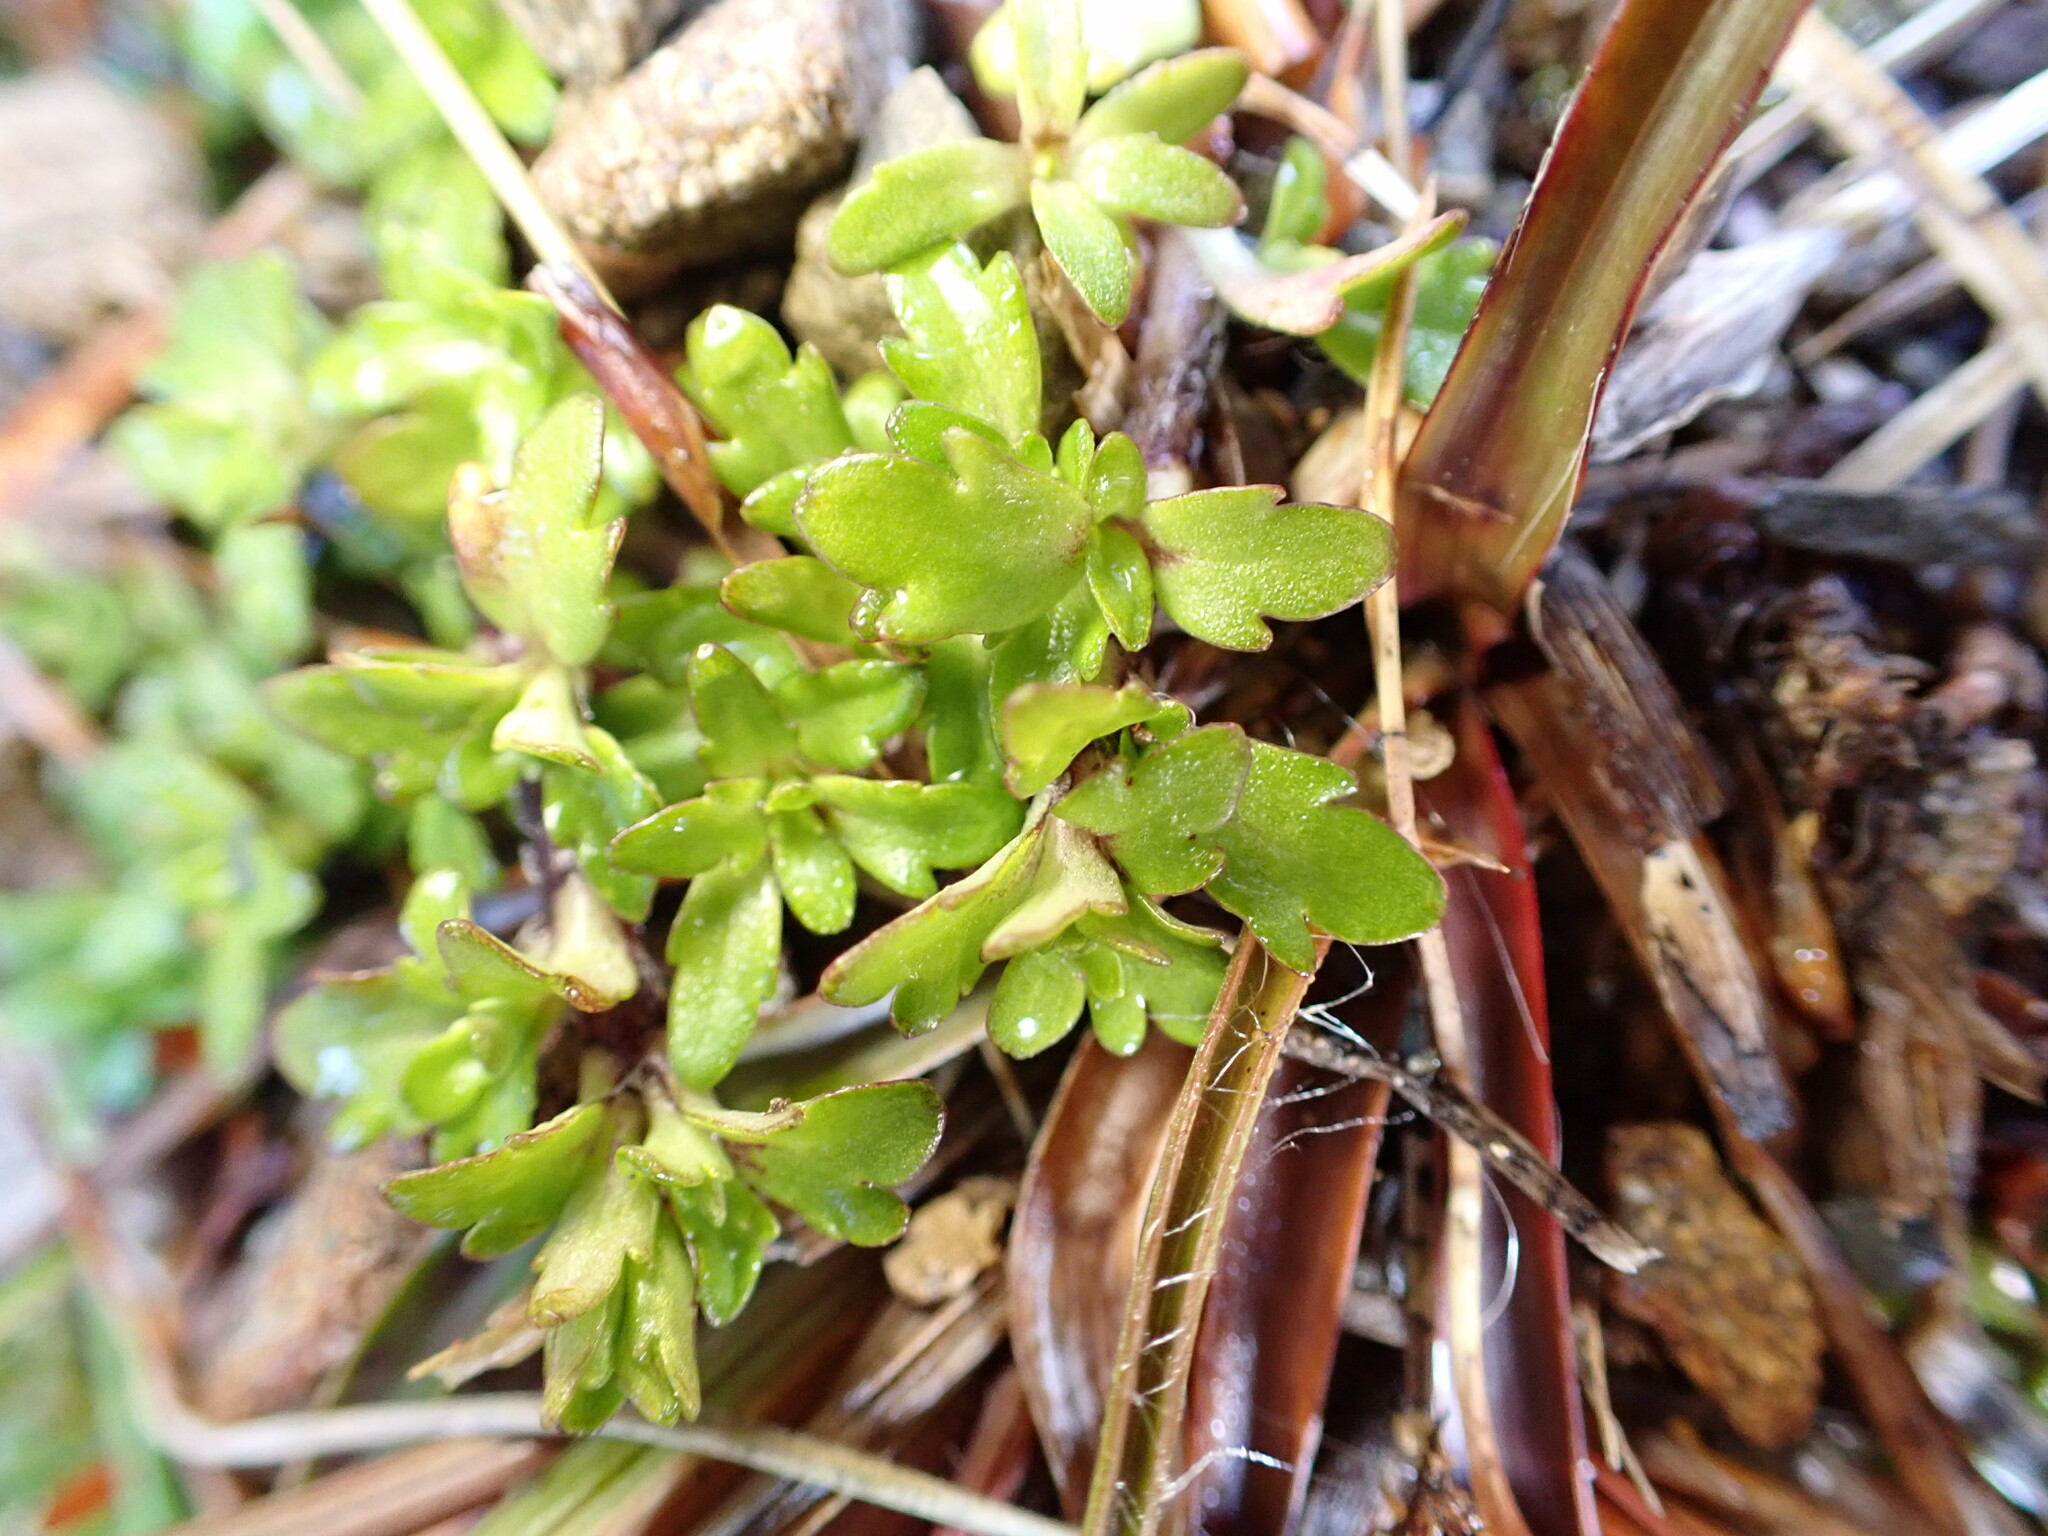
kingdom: Plantae
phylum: Tracheophyta
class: Magnoliopsida
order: Lamiales
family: Plantaginaceae
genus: Ourisia
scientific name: Ourisia caespitosa
